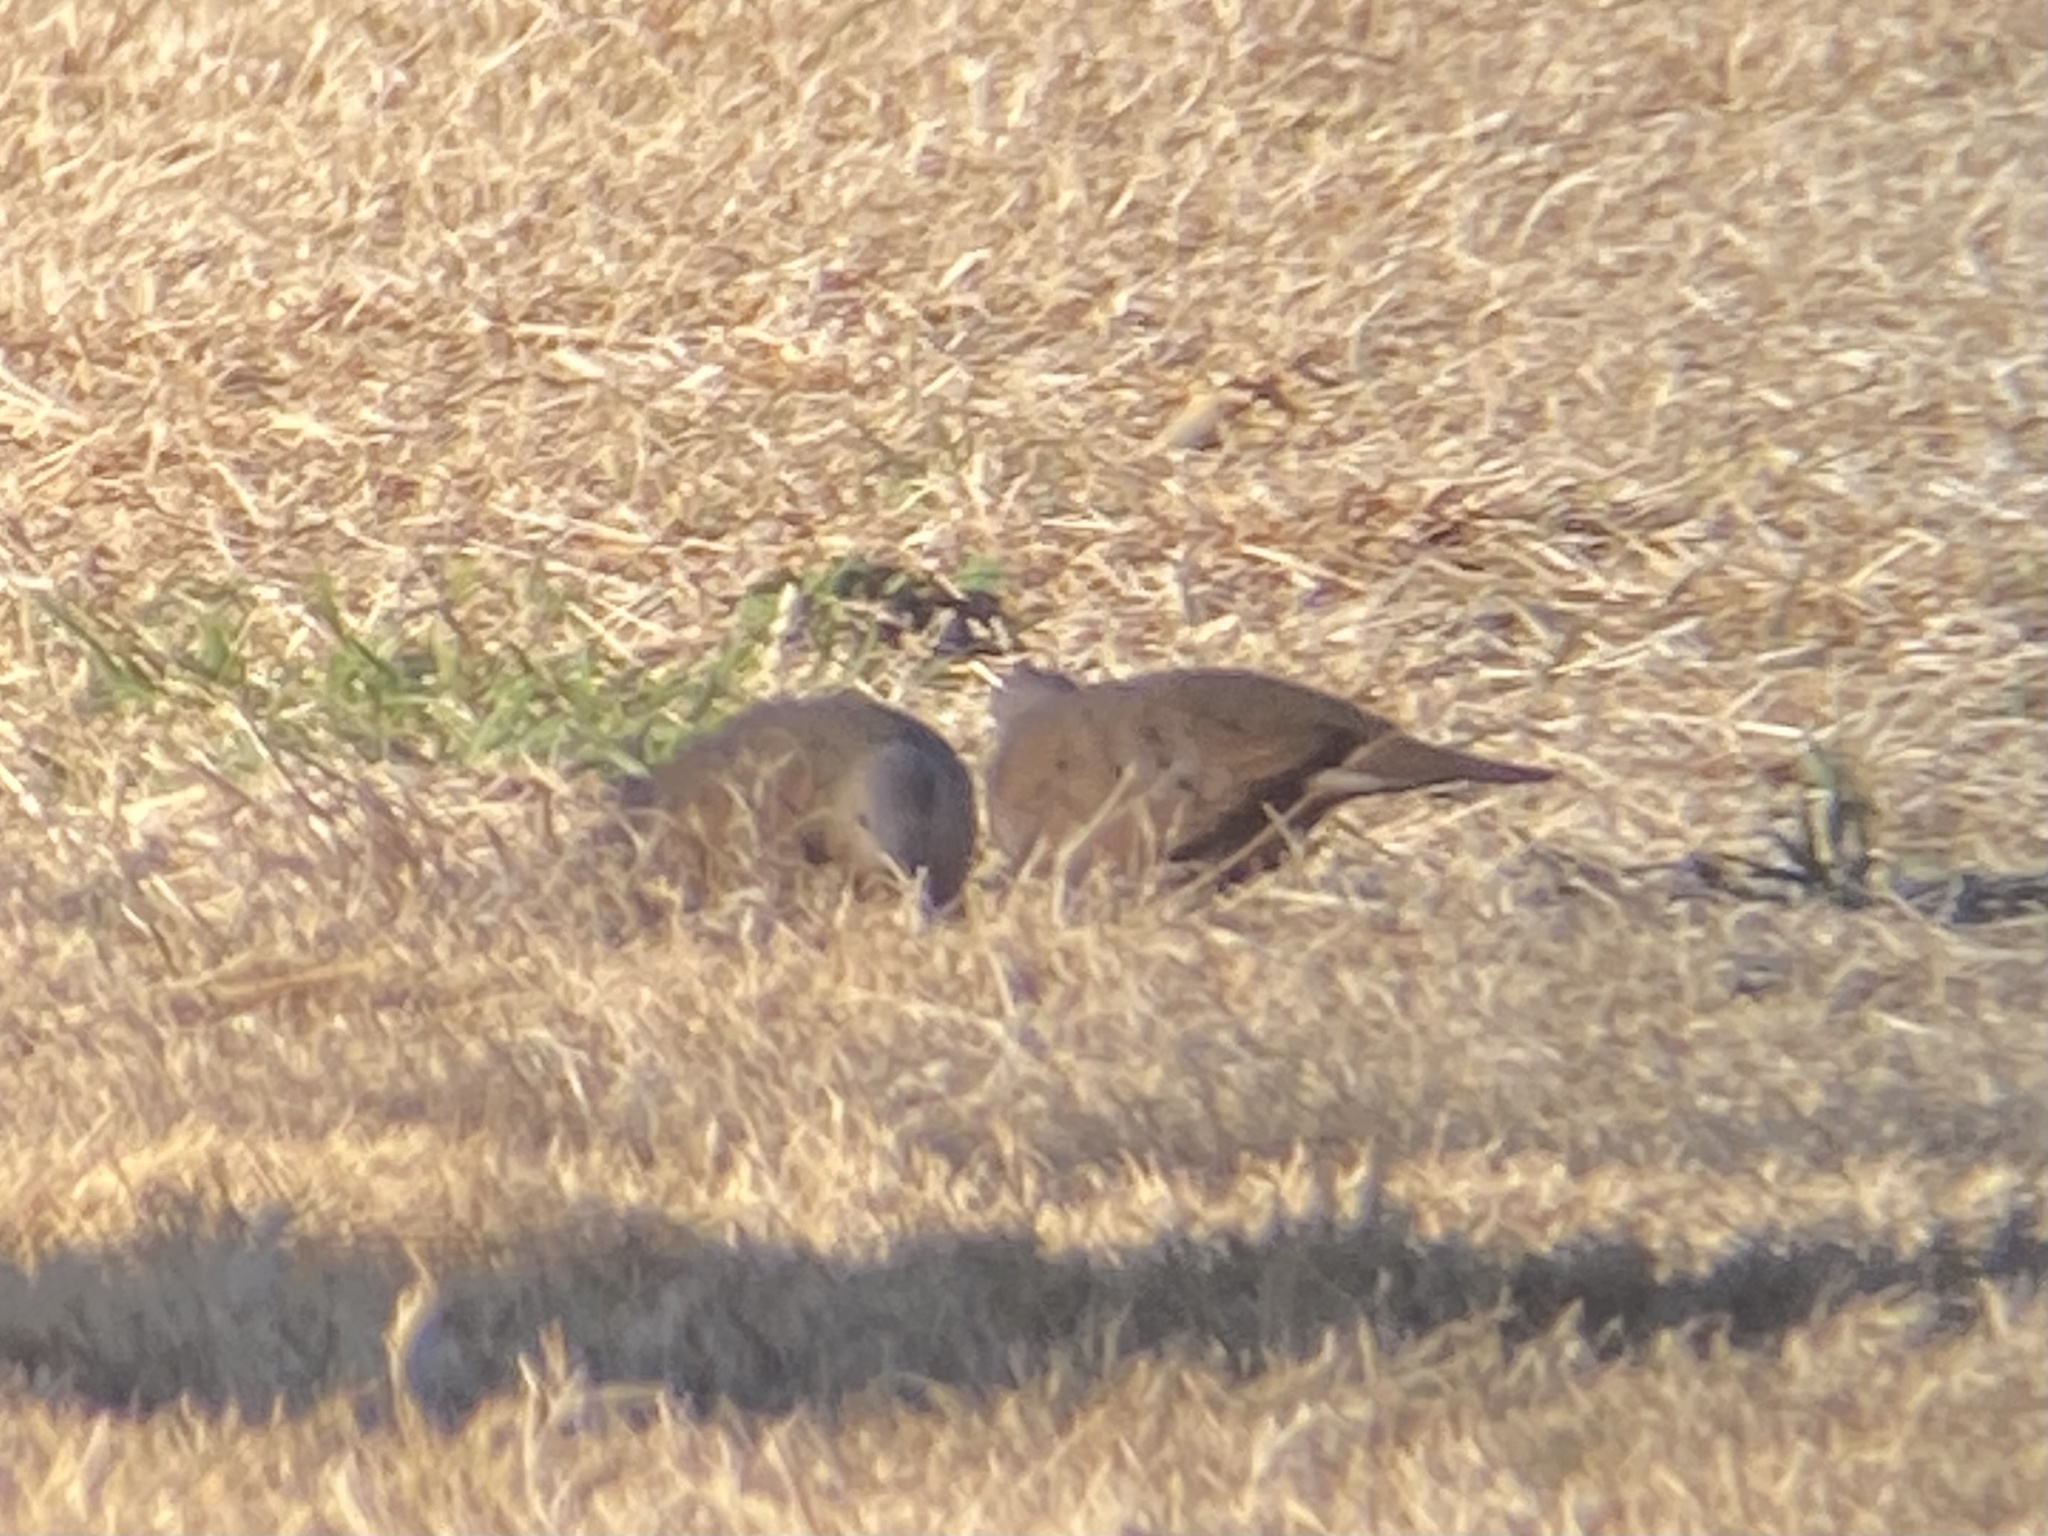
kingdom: Animalia
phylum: Chordata
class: Aves
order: Columbiformes
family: Columbidae
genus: Columbina
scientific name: Columbina talpacoti
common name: Ruddy ground dove
